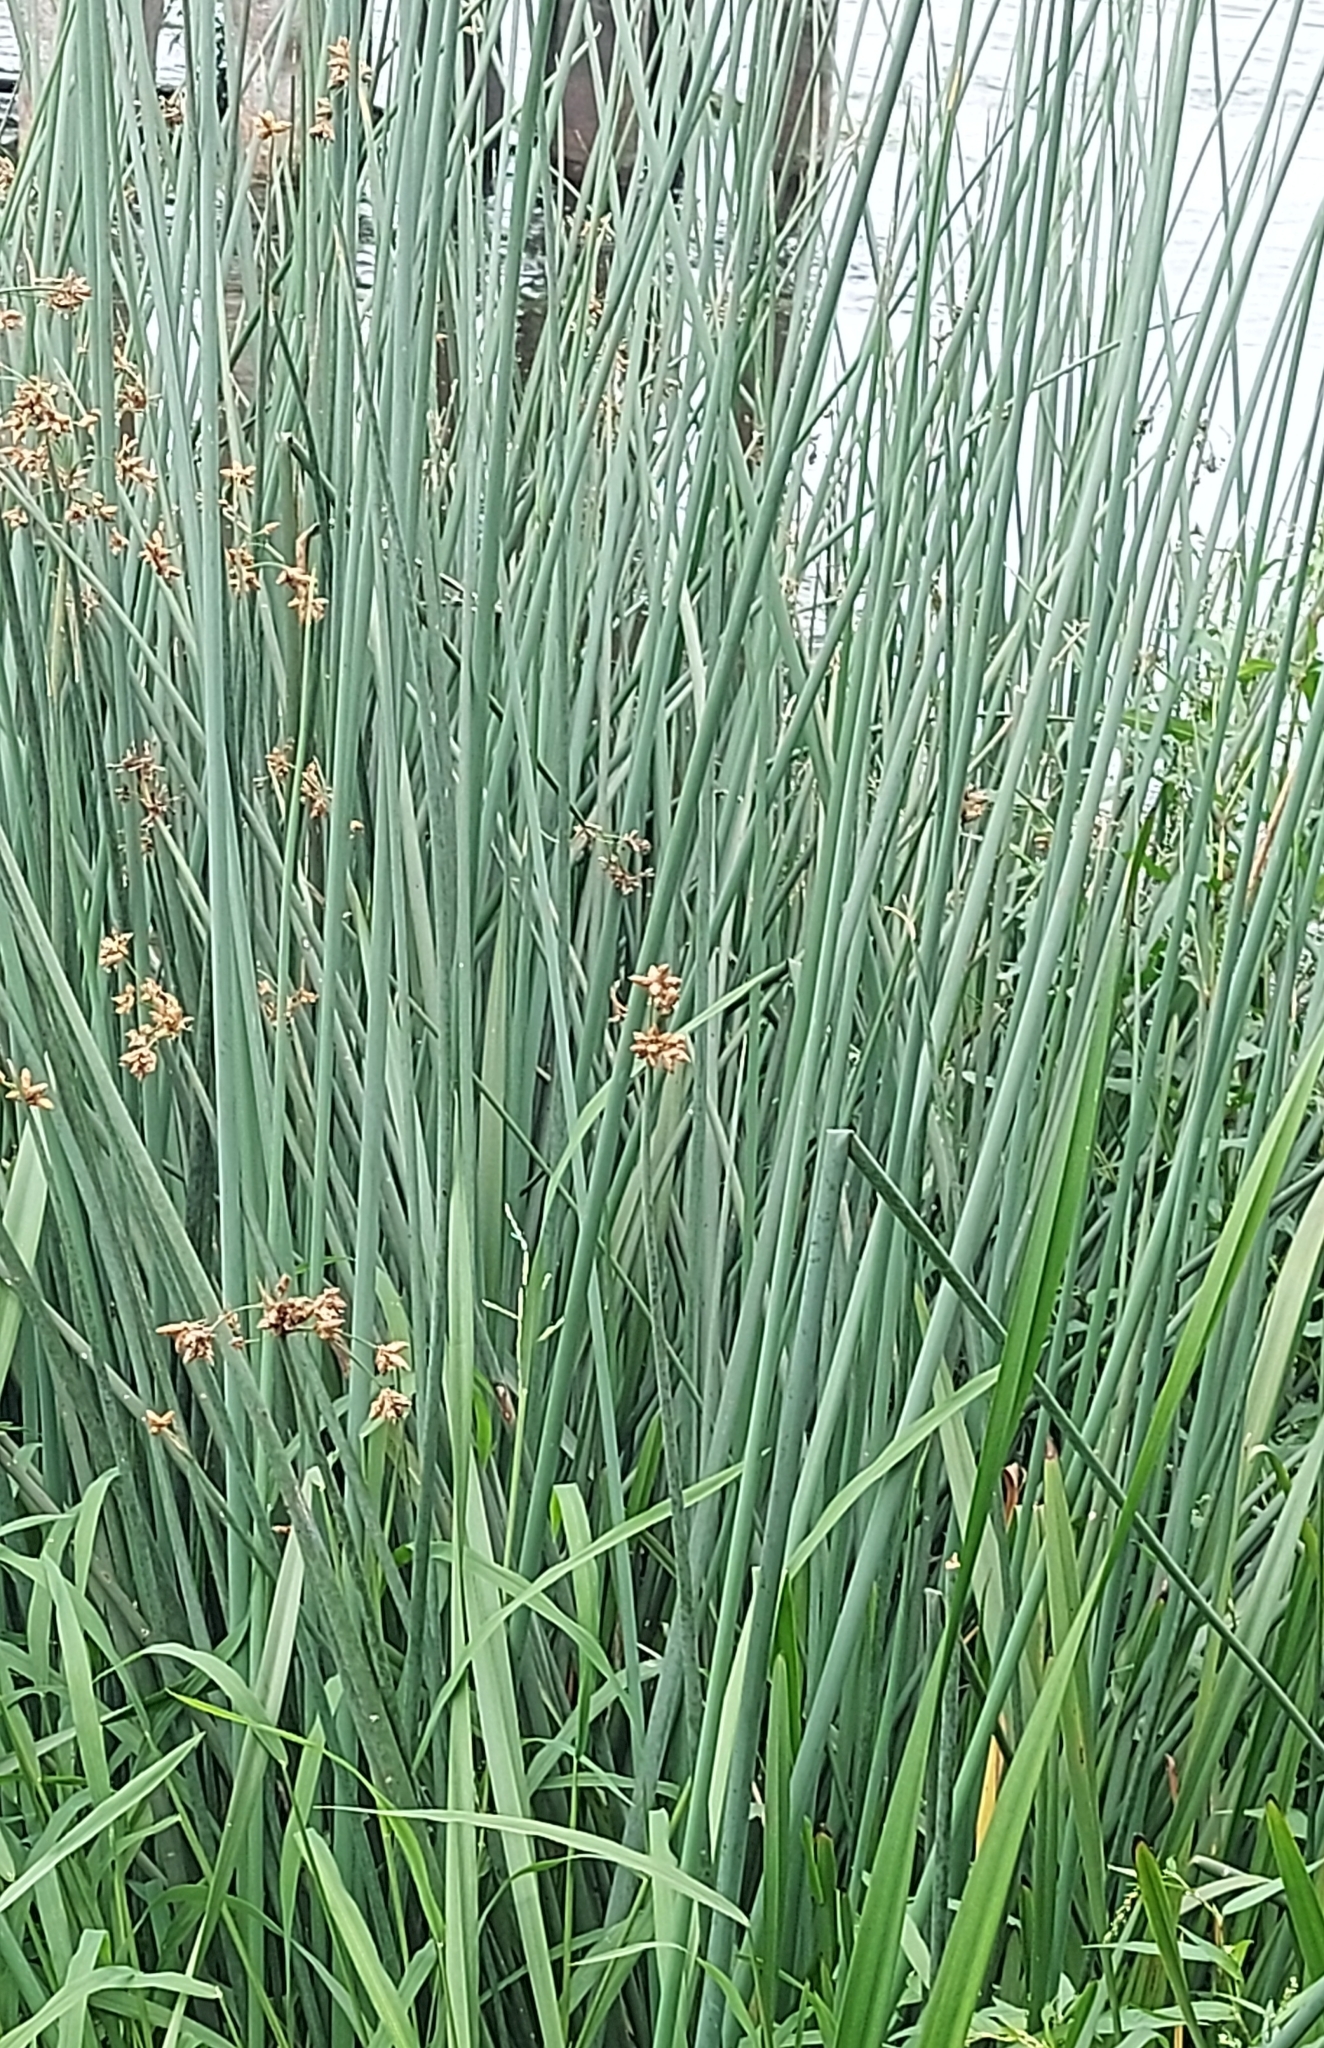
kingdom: Plantae
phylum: Tracheophyta
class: Liliopsida
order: Poales
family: Cyperaceae
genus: Schoenoplectus
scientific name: Schoenoplectus lacustris
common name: Common club-rush
